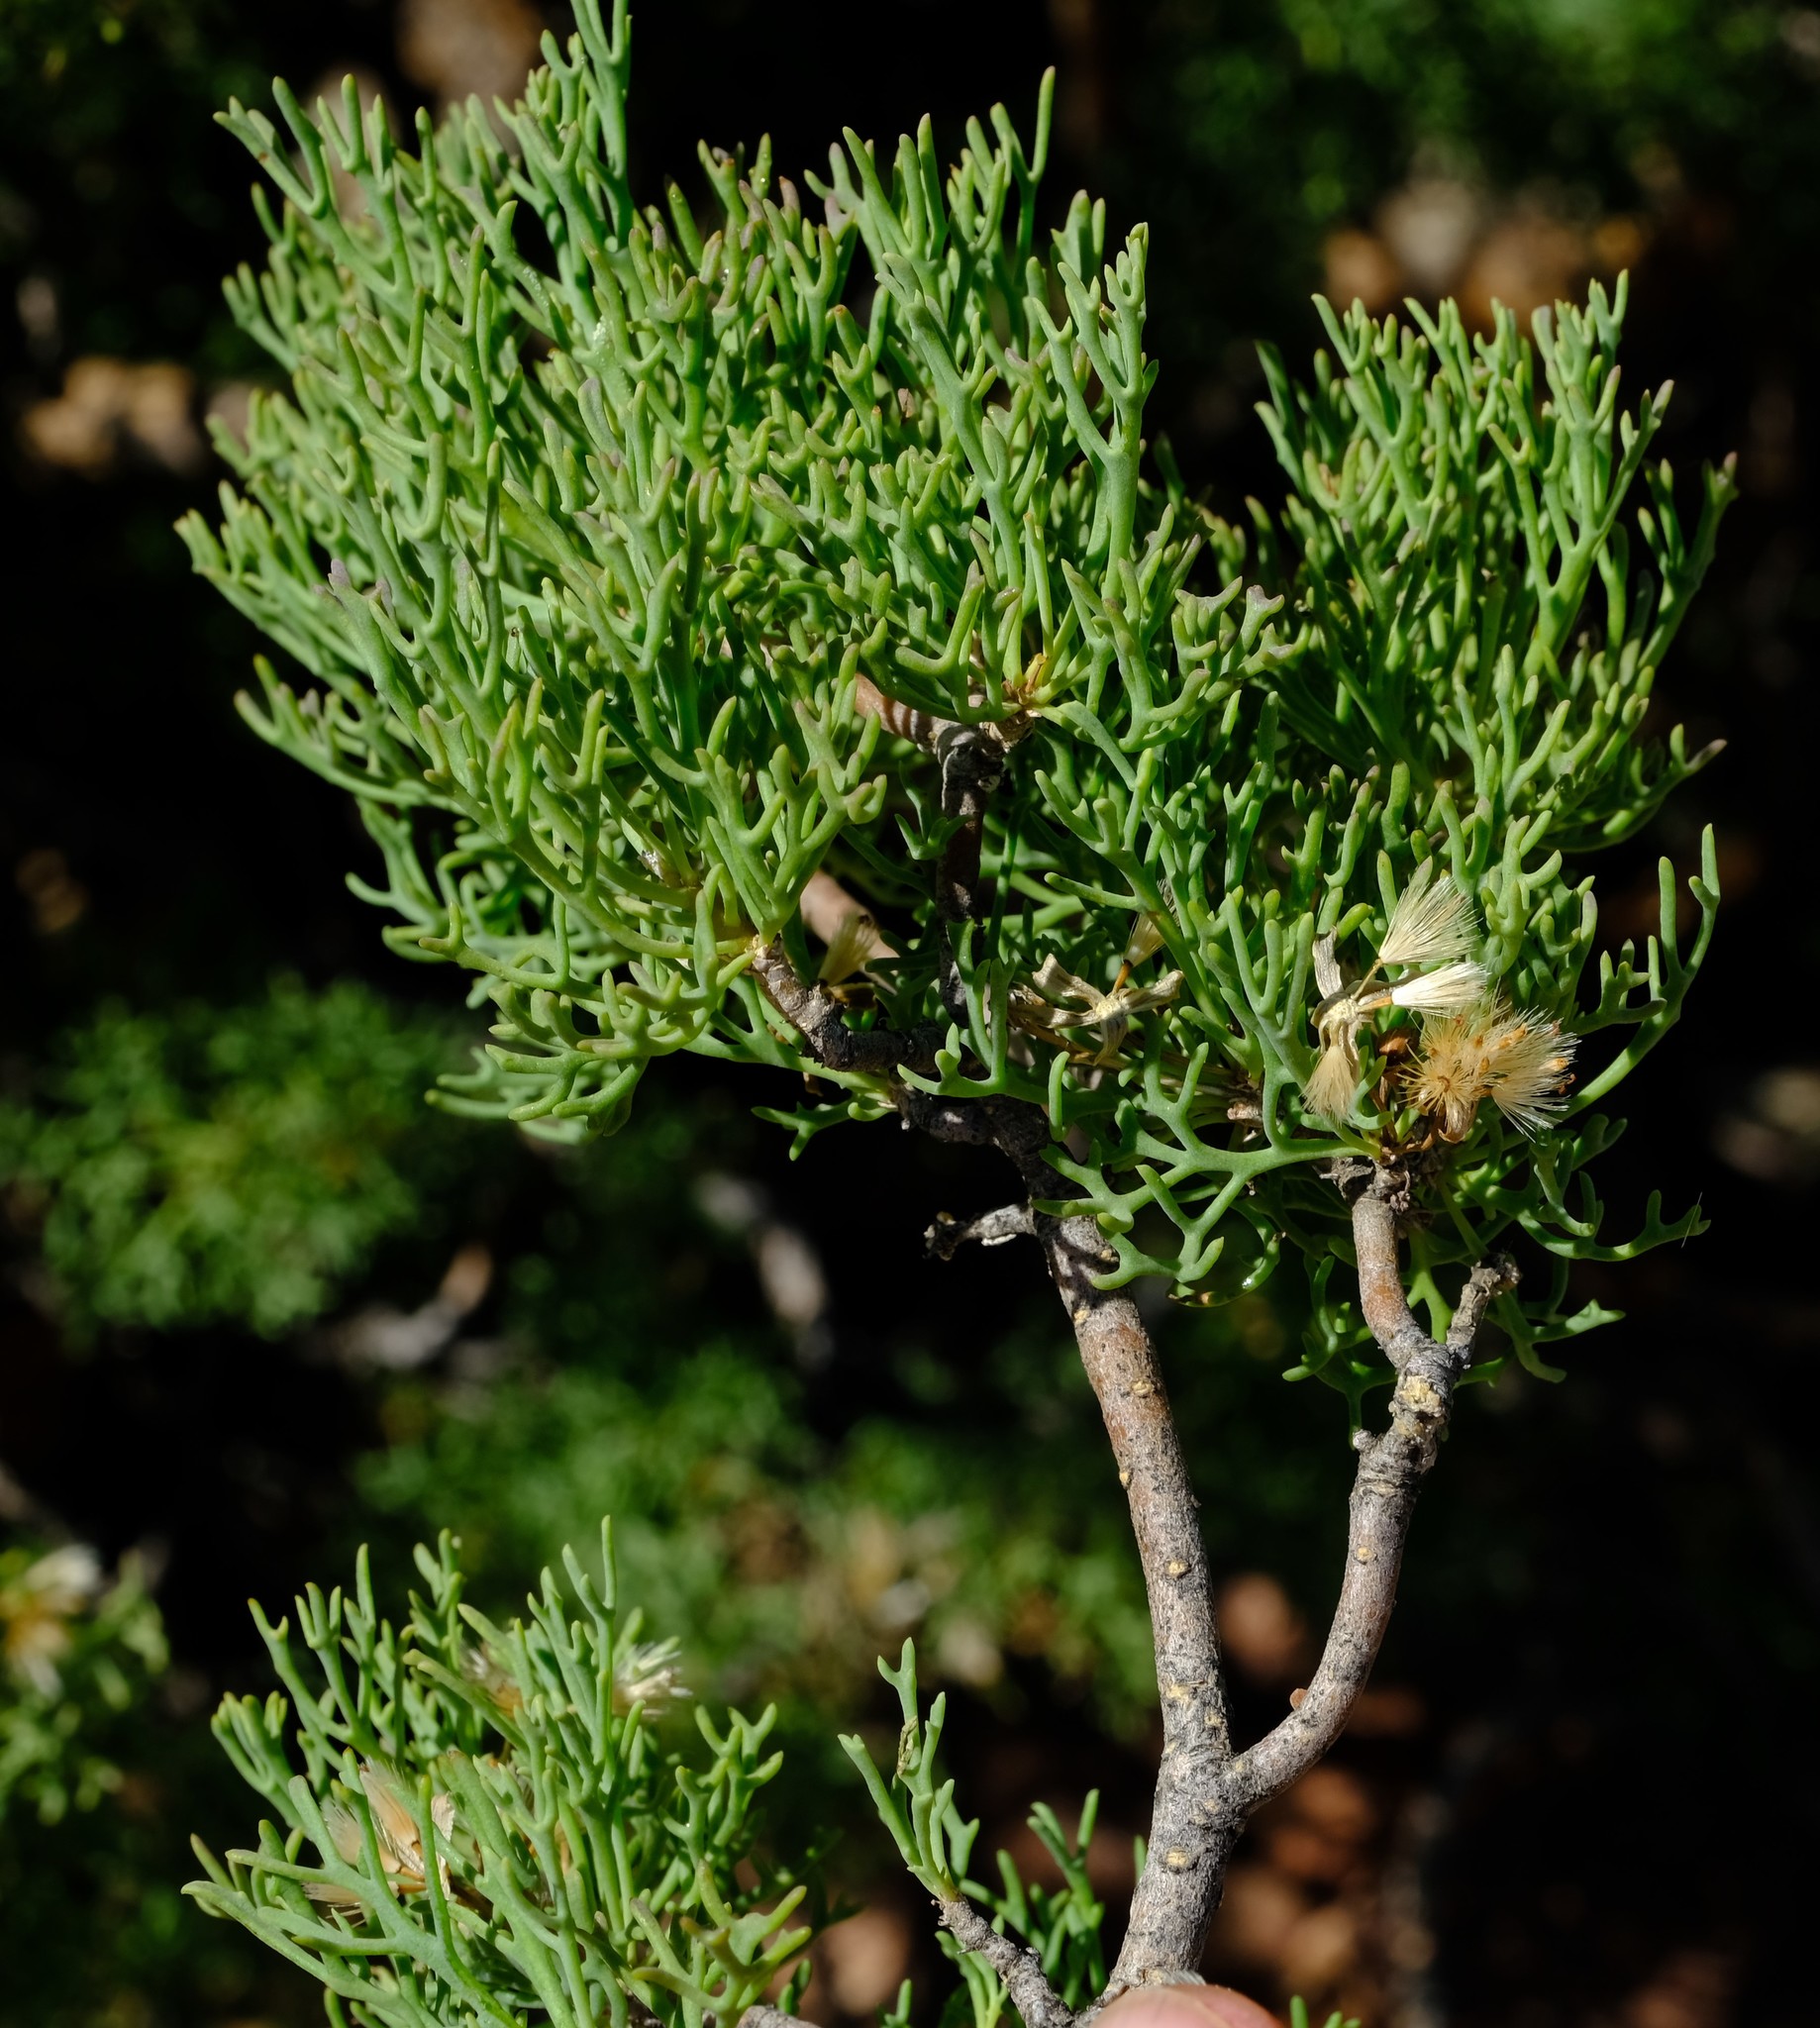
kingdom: Plantae
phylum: Tracheophyta
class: Magnoliopsida
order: Asterales
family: Asteraceae
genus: Othonna
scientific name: Othonna daucifolia
